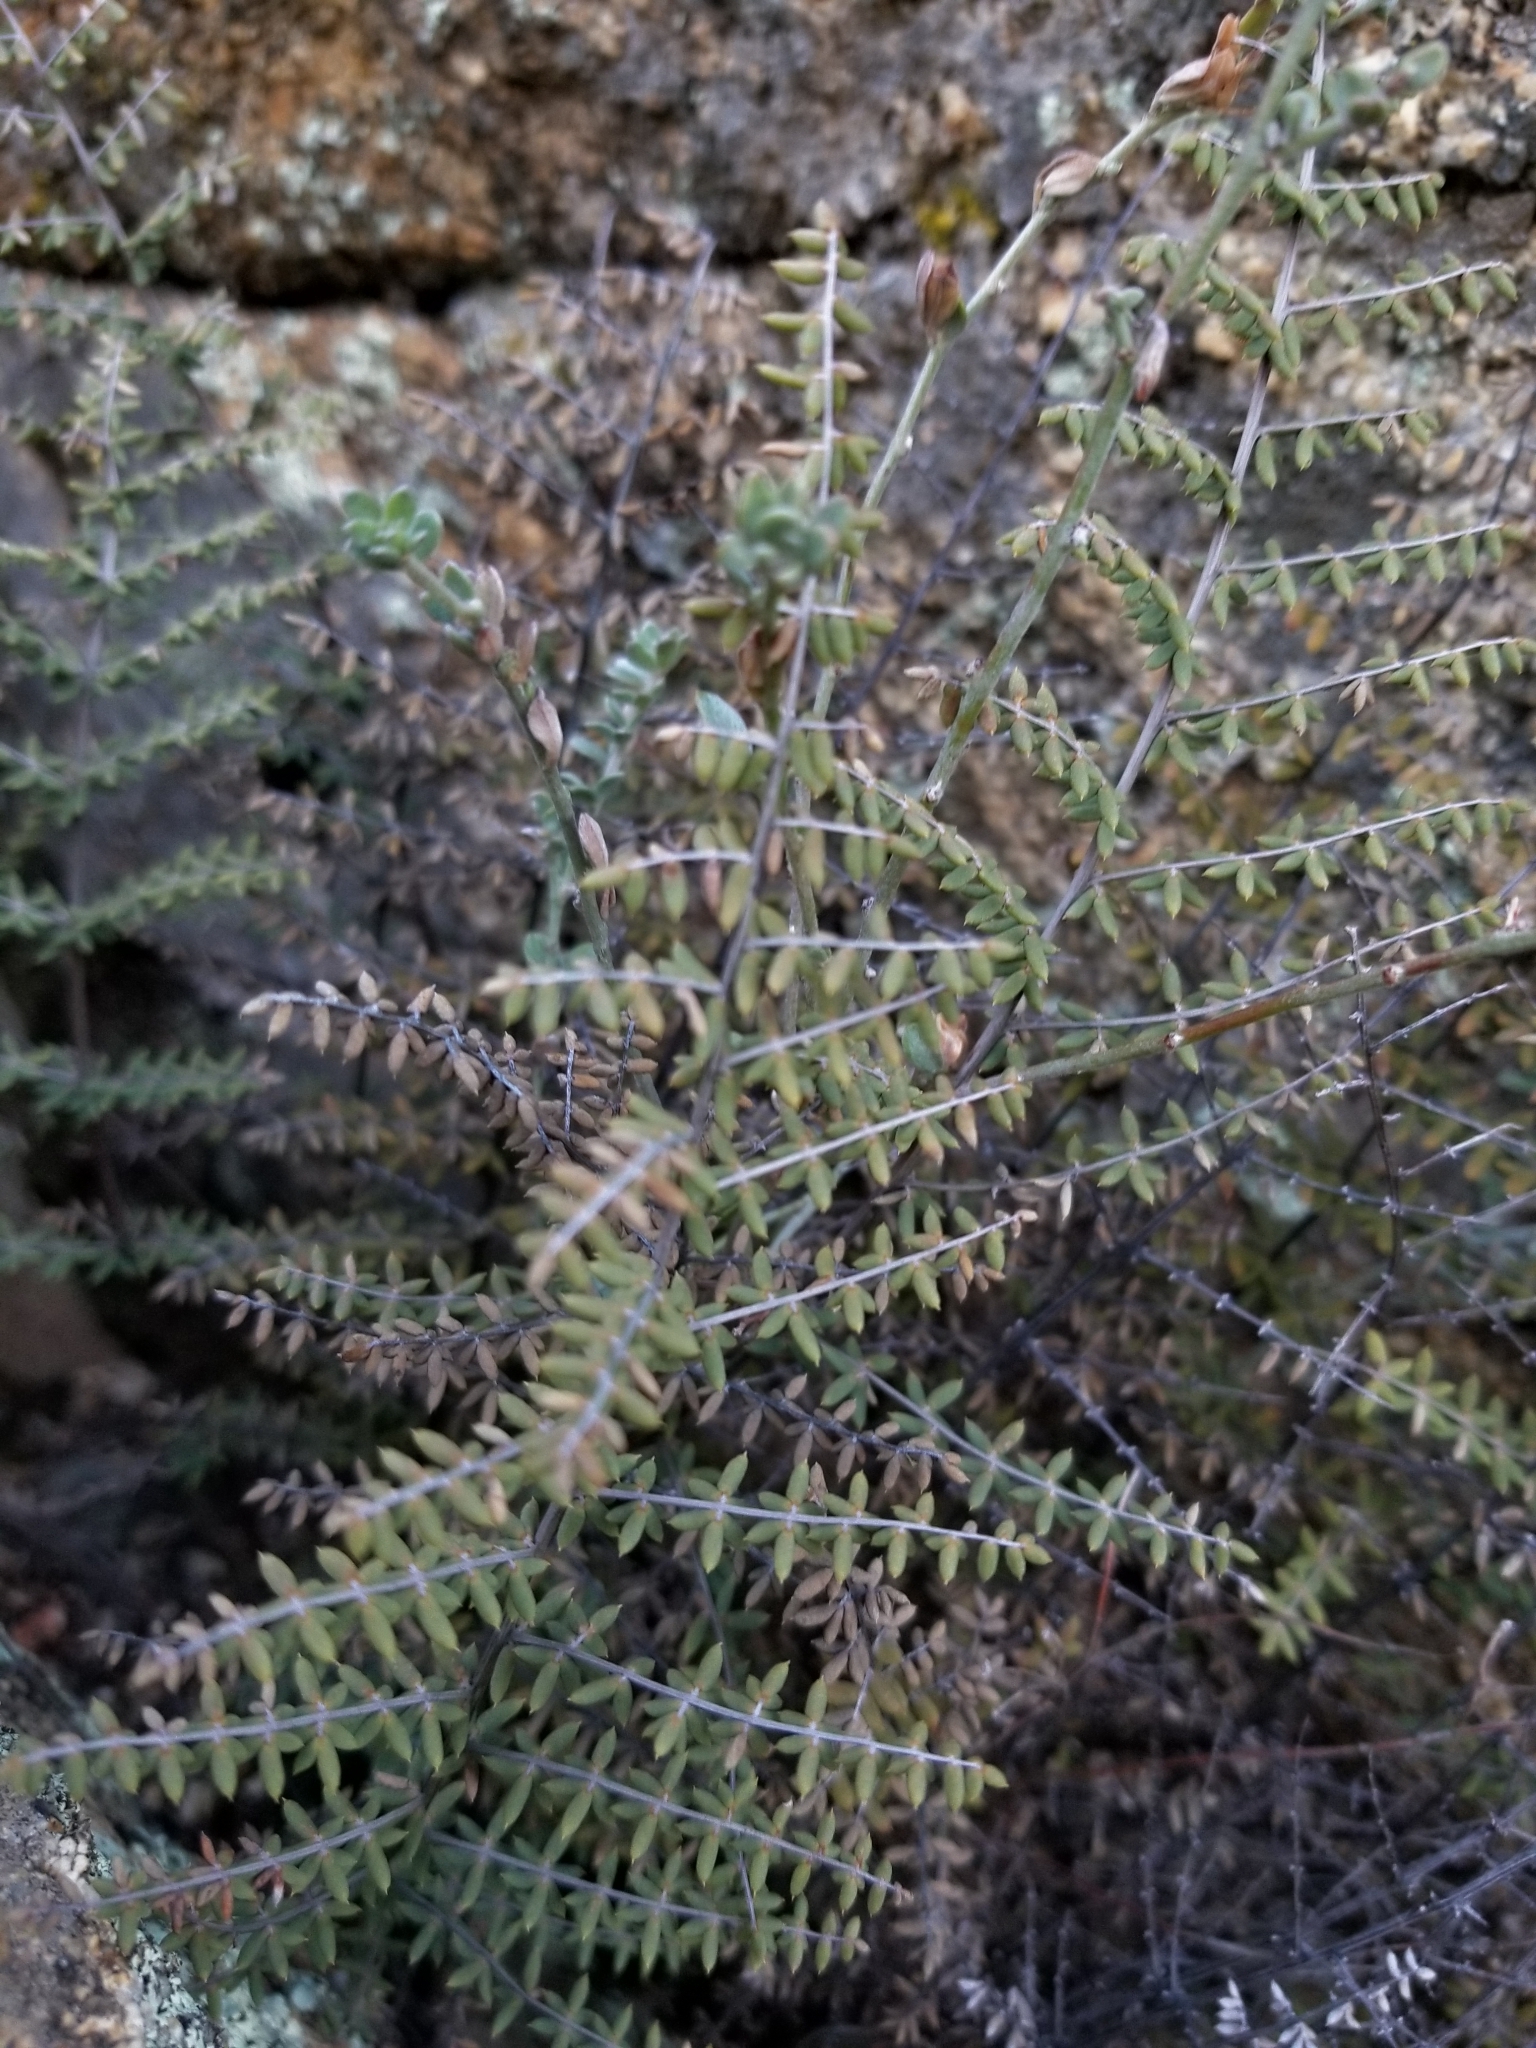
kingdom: Plantae
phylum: Tracheophyta
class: Polypodiopsida
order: Polypodiales
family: Pteridaceae
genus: Pellaea
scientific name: Pellaea mucronata
